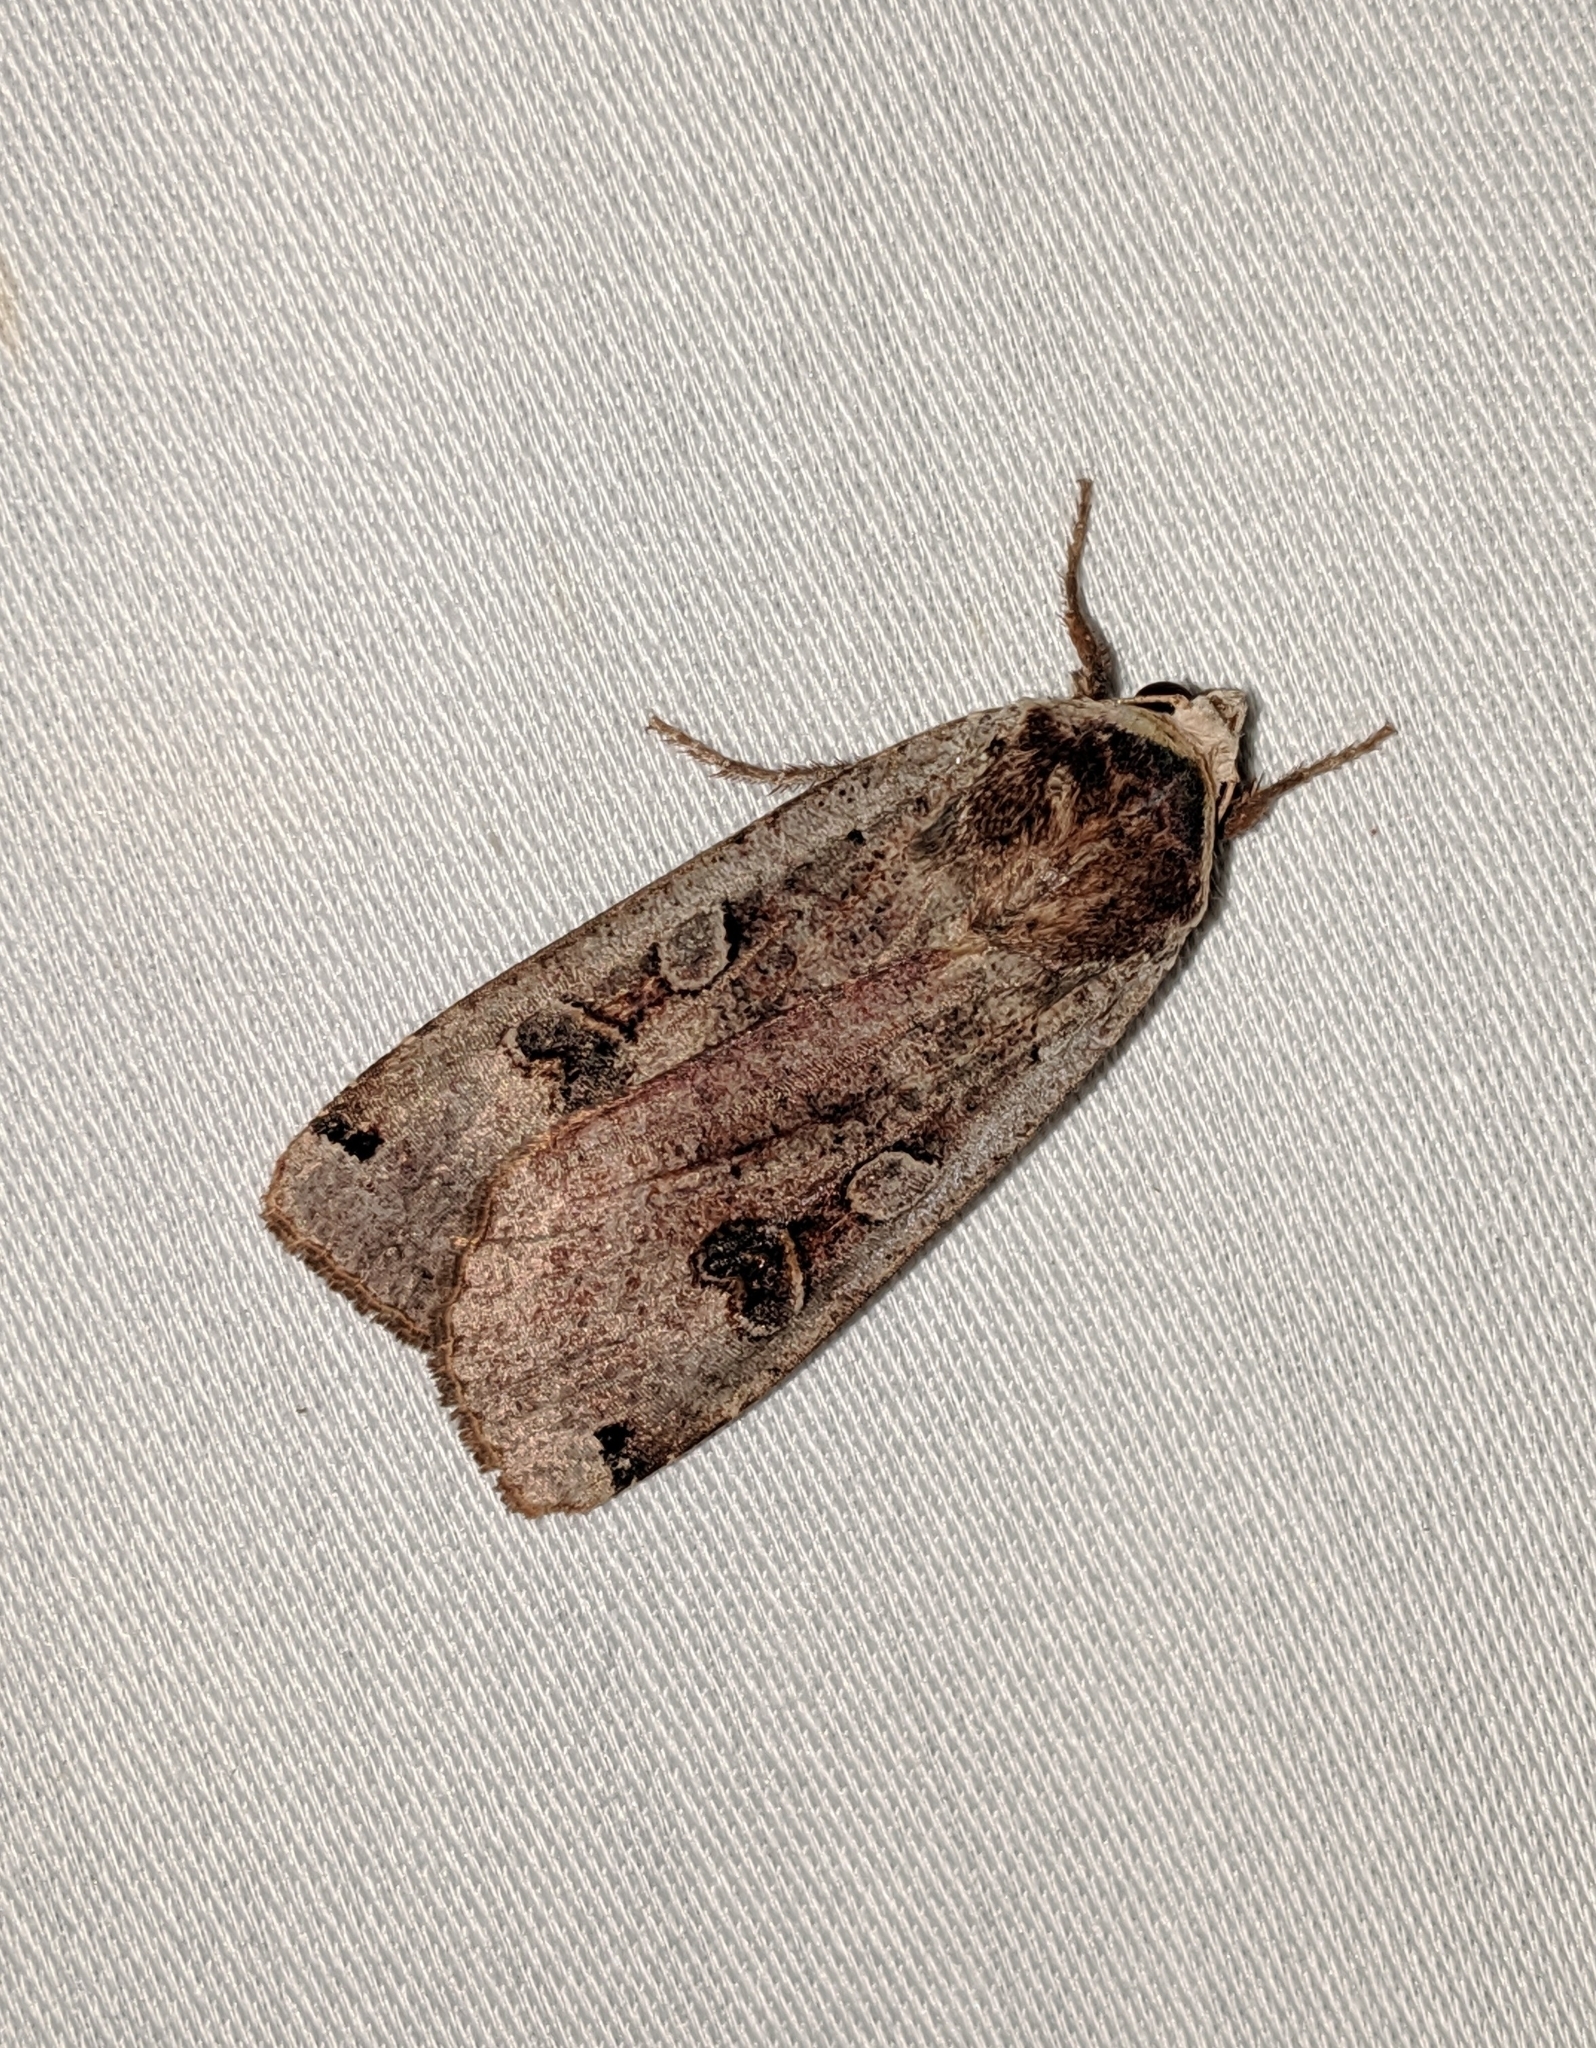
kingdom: Animalia
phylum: Arthropoda
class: Insecta
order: Lepidoptera
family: Noctuidae
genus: Noctua
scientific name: Noctua pronuba
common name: Large yellow underwing
